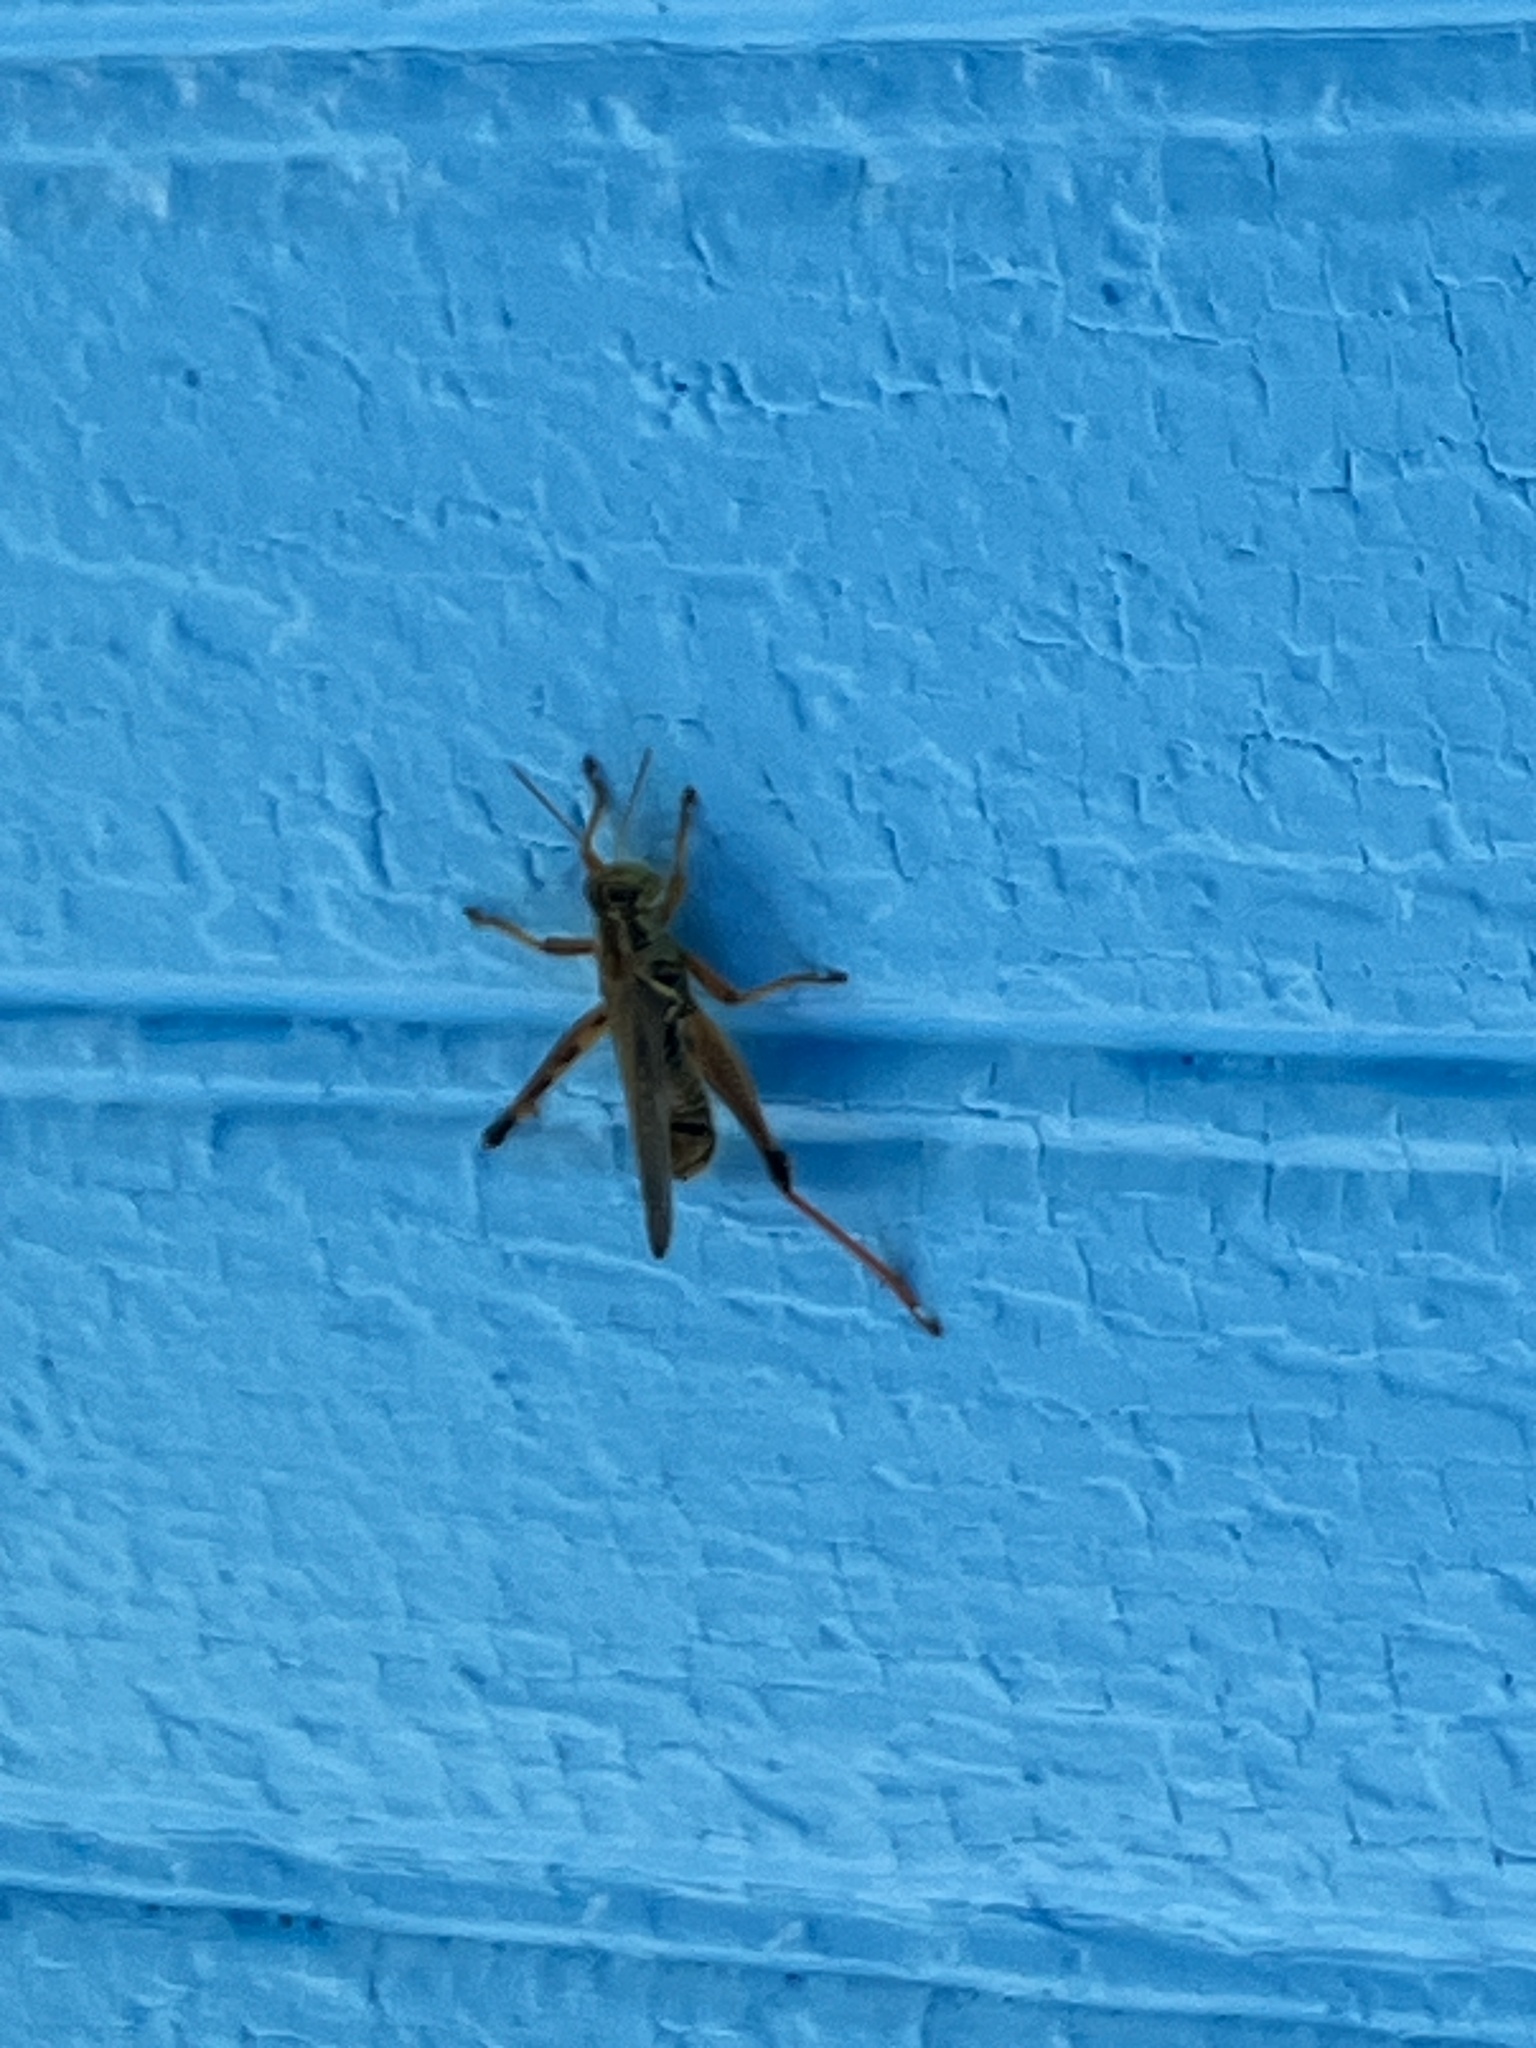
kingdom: Animalia
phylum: Arthropoda
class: Insecta
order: Orthoptera
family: Acrididae
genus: Melanoplus
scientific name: Melanoplus femurrubrum
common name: Red-legged grasshopper
